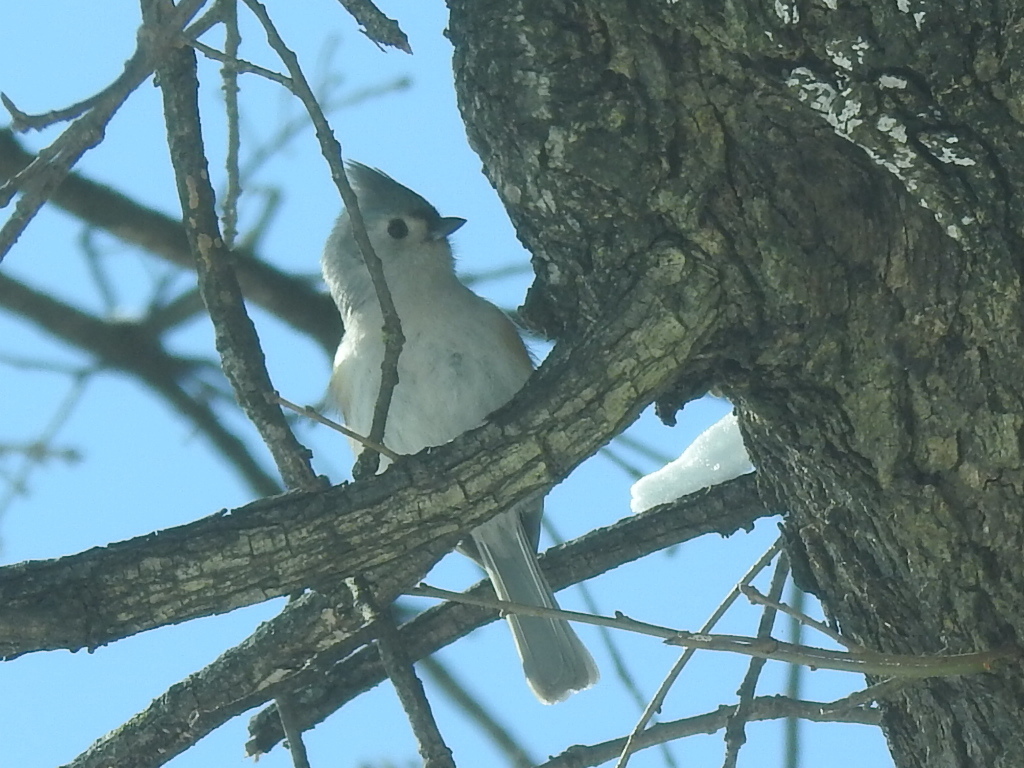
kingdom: Animalia
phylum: Chordata
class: Aves
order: Passeriformes
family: Paridae
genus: Baeolophus
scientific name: Baeolophus bicolor
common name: Tufted titmouse
